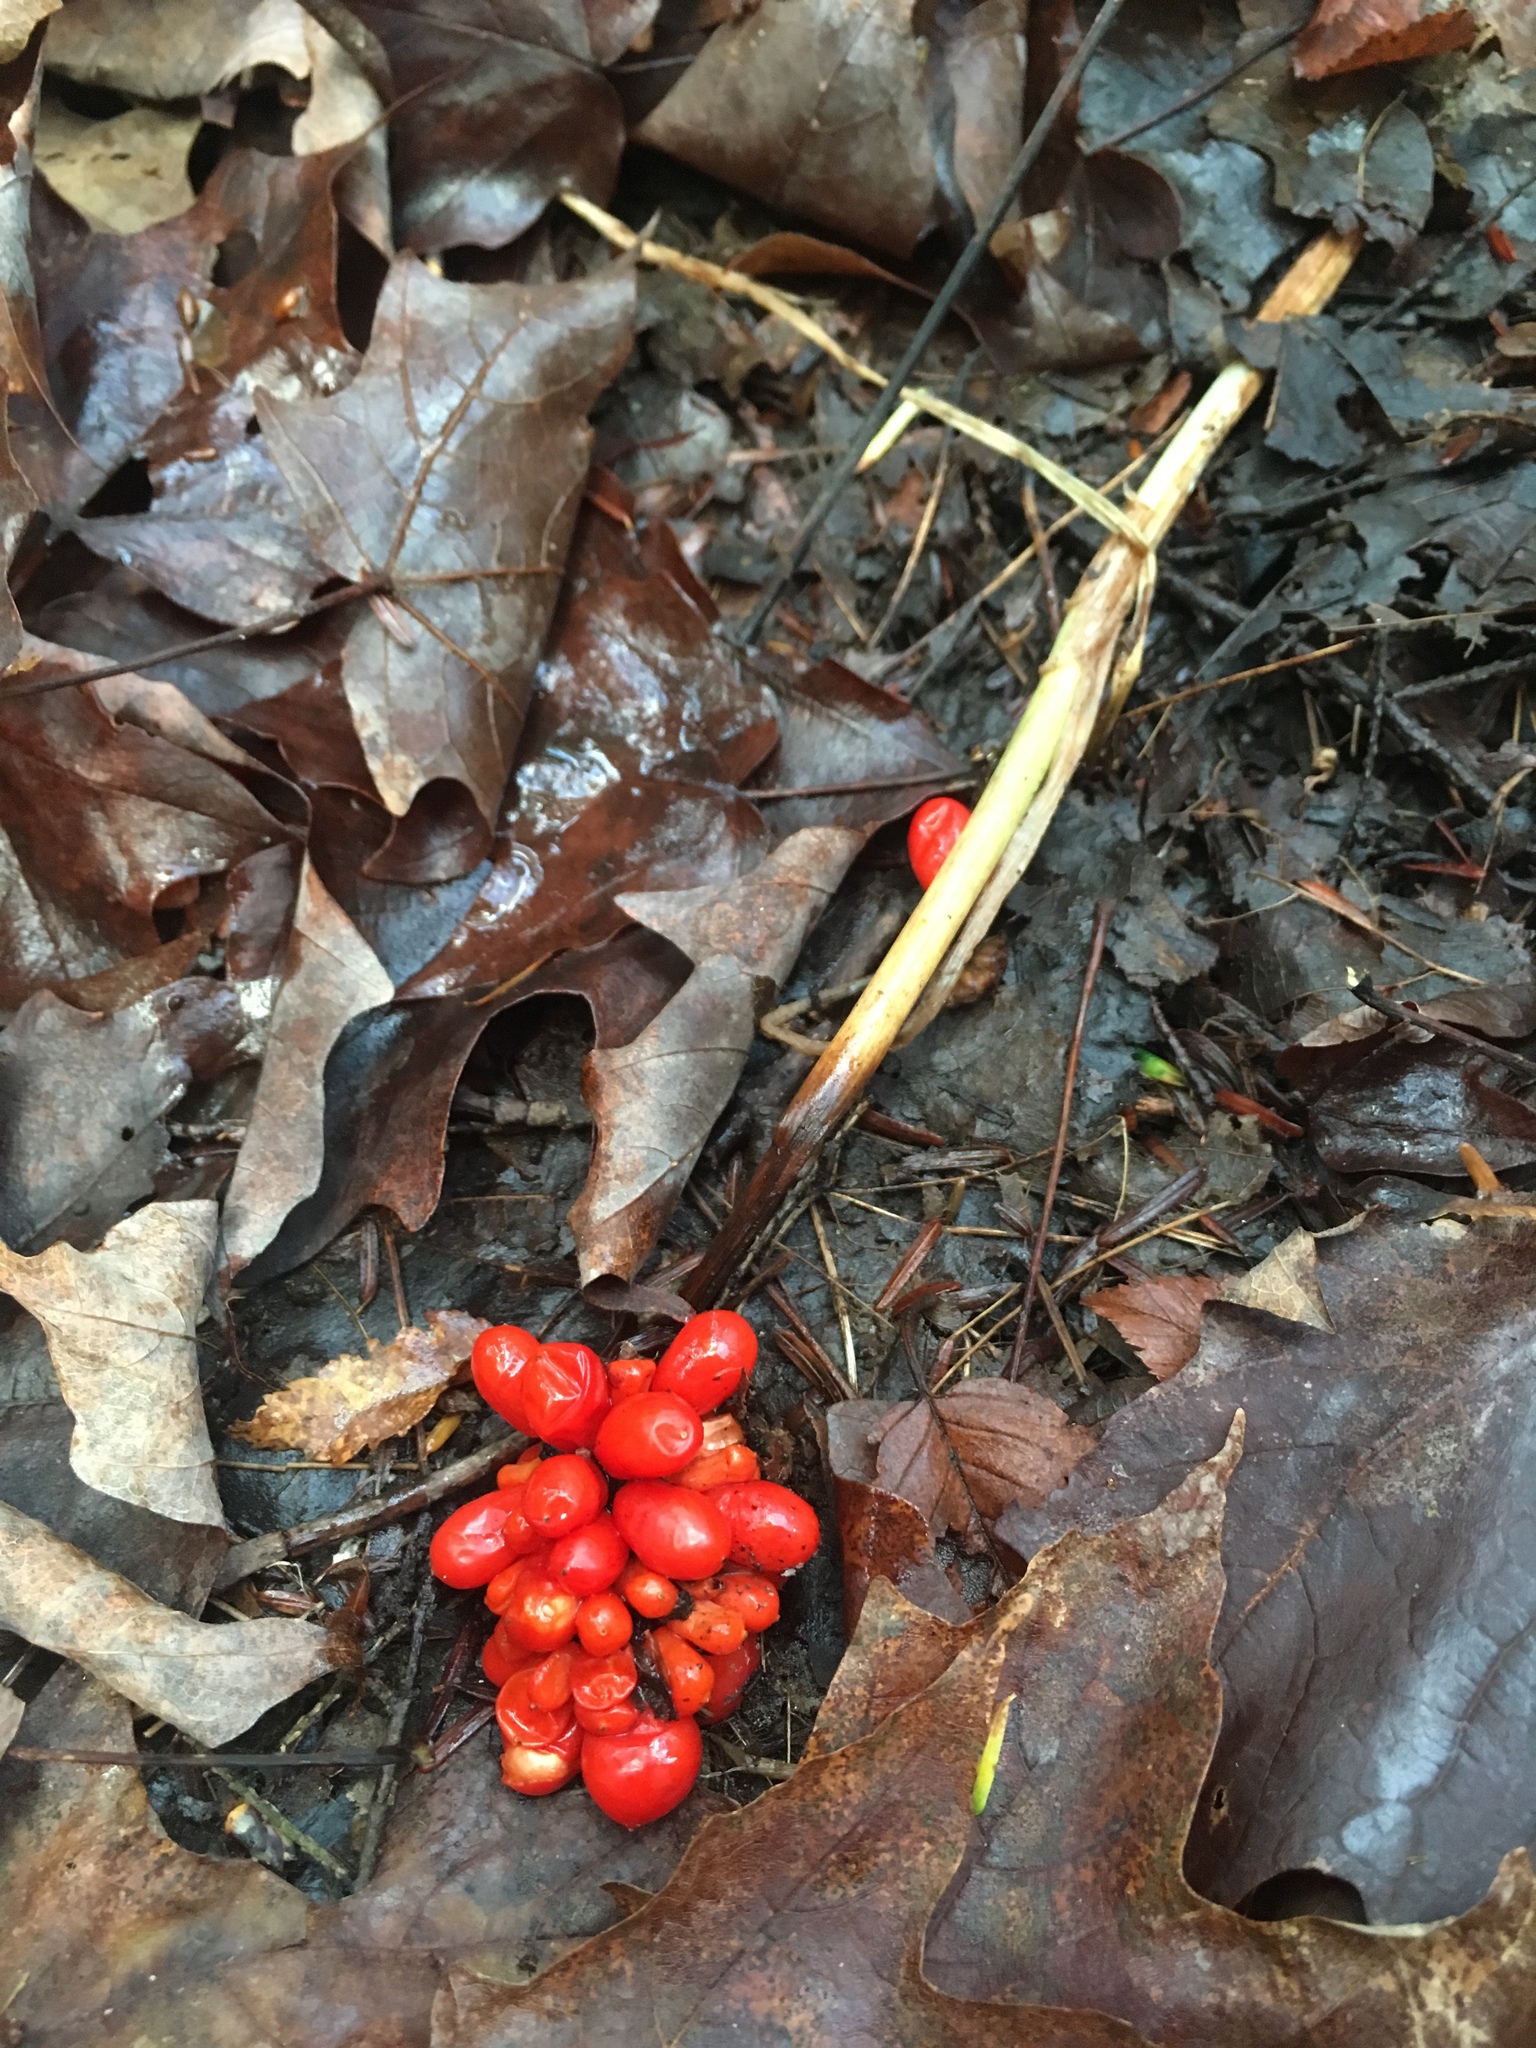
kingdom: Plantae
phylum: Tracheophyta
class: Liliopsida
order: Alismatales
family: Araceae
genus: Arisaema
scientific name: Arisaema triphyllum
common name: Jack-in-the-pulpit
